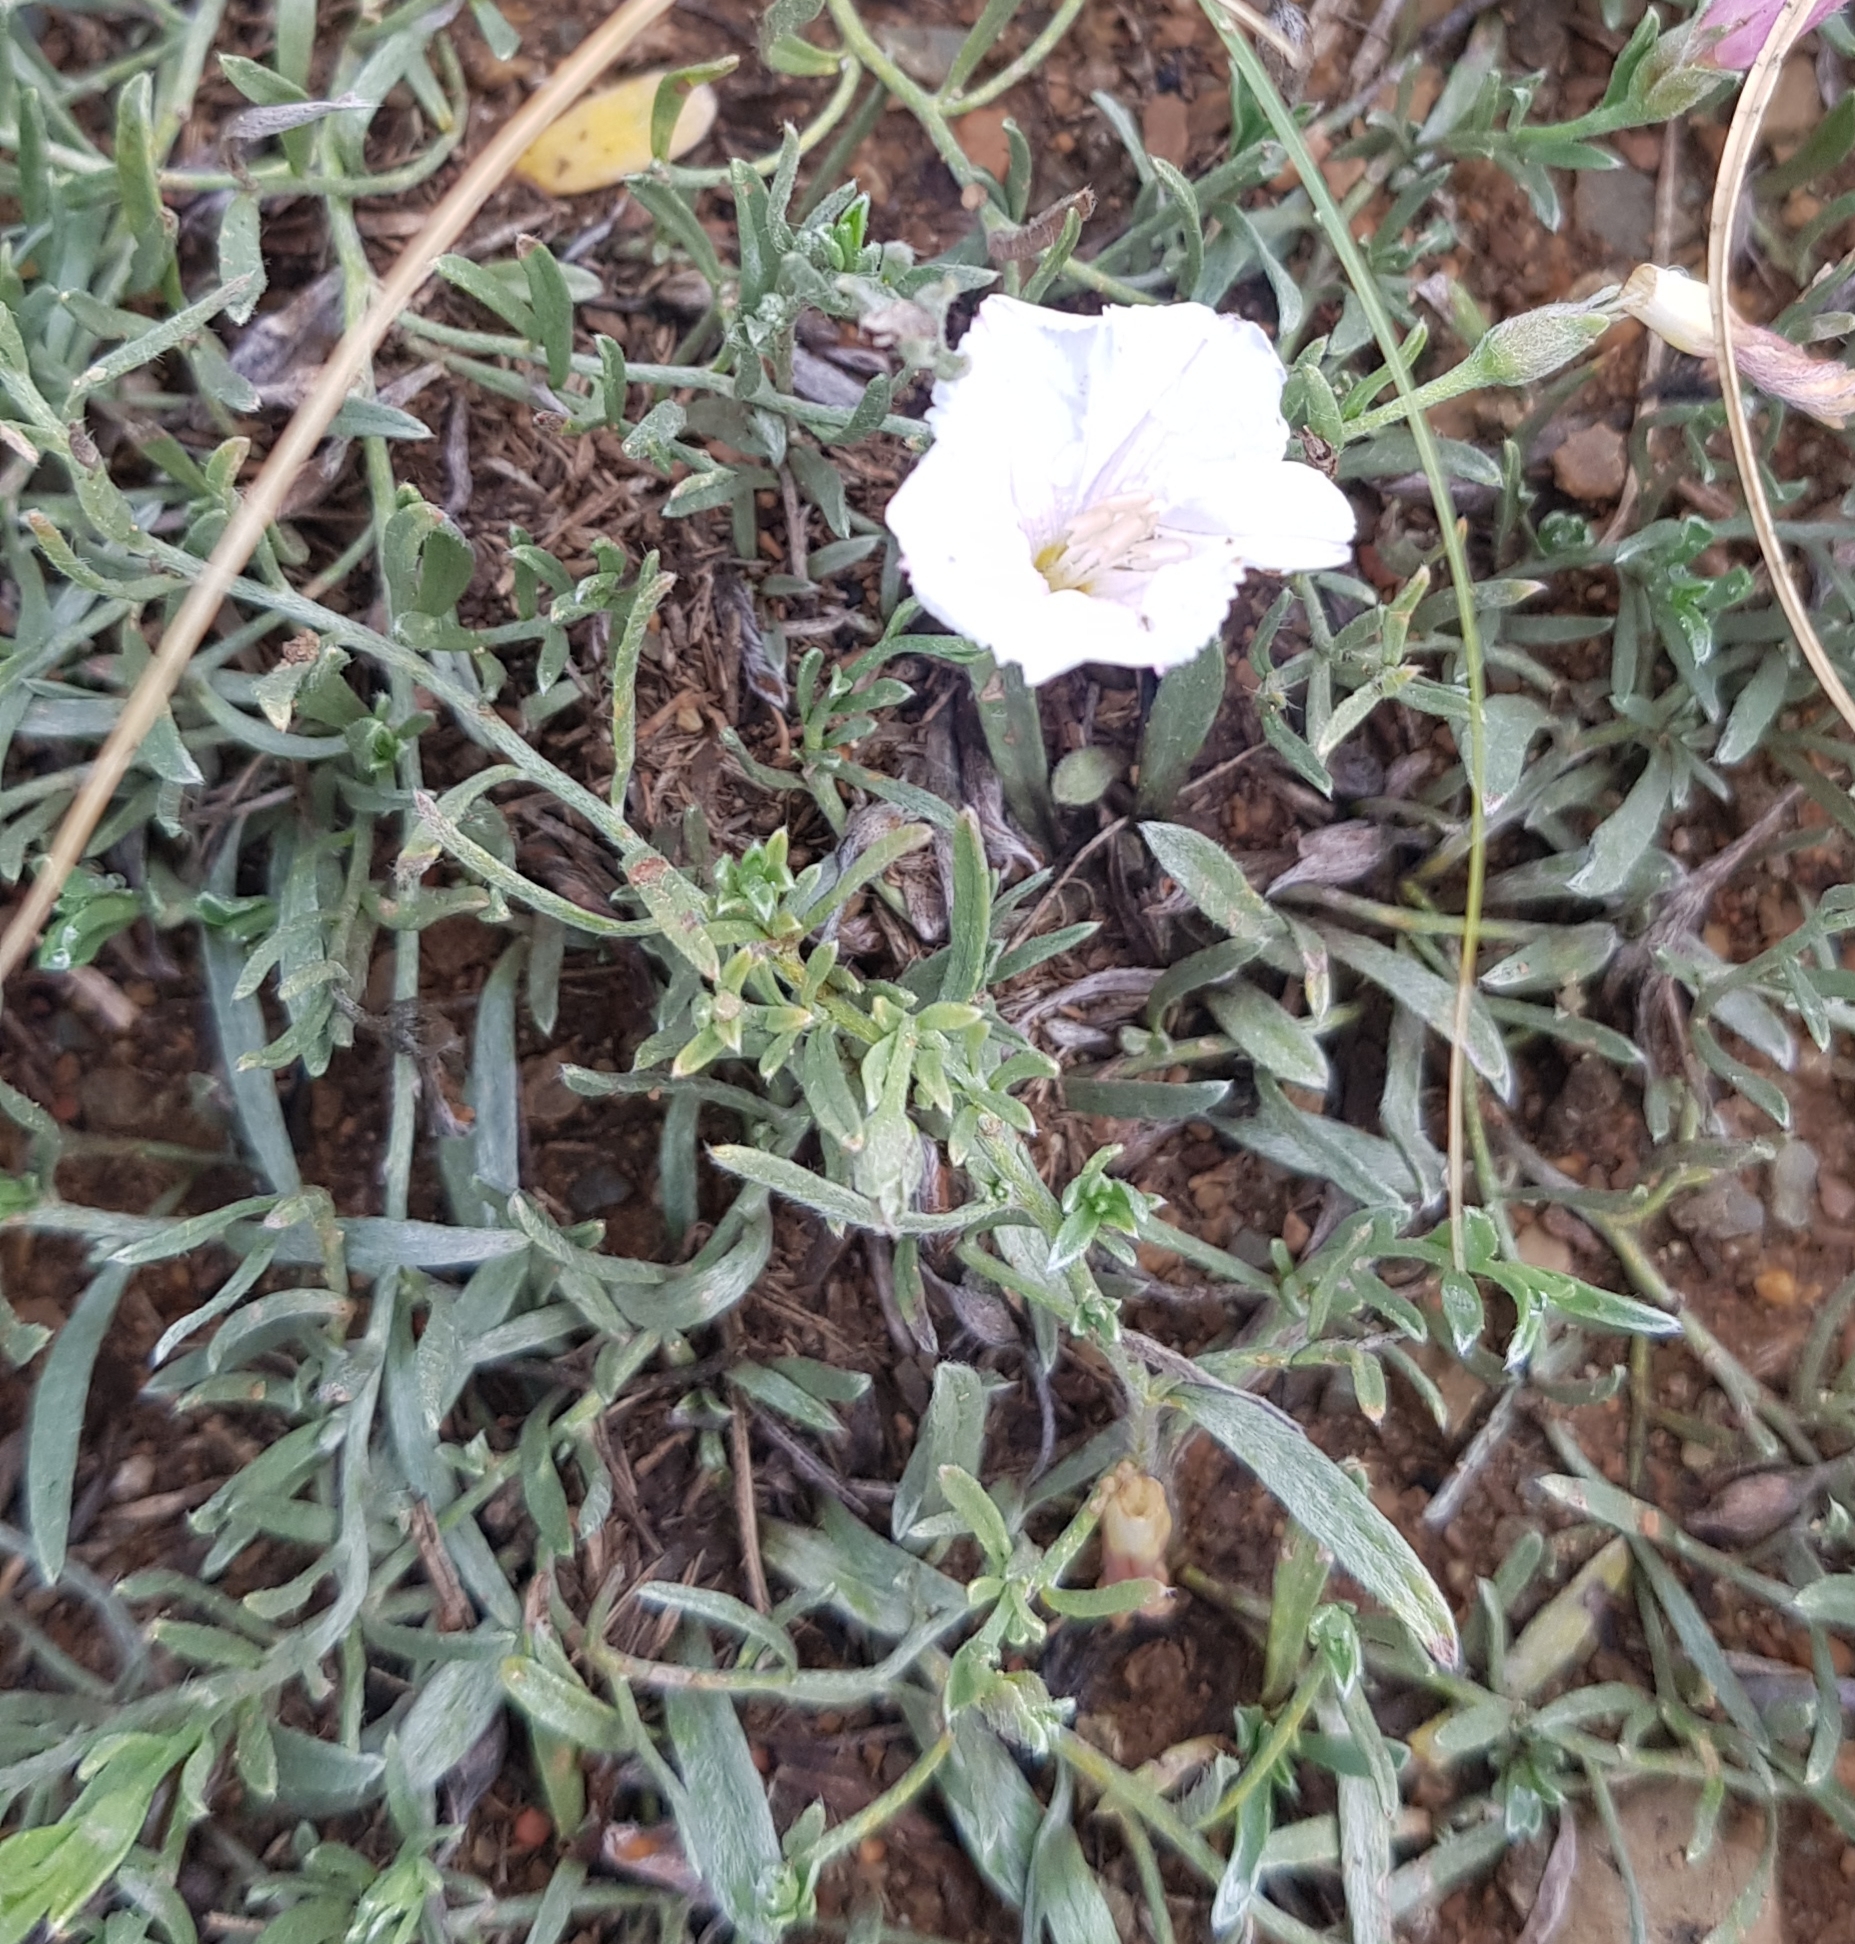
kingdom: Plantae
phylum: Tracheophyta
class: Magnoliopsida
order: Solanales
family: Convolvulaceae
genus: Convolvulus
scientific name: Convolvulus ammannii
